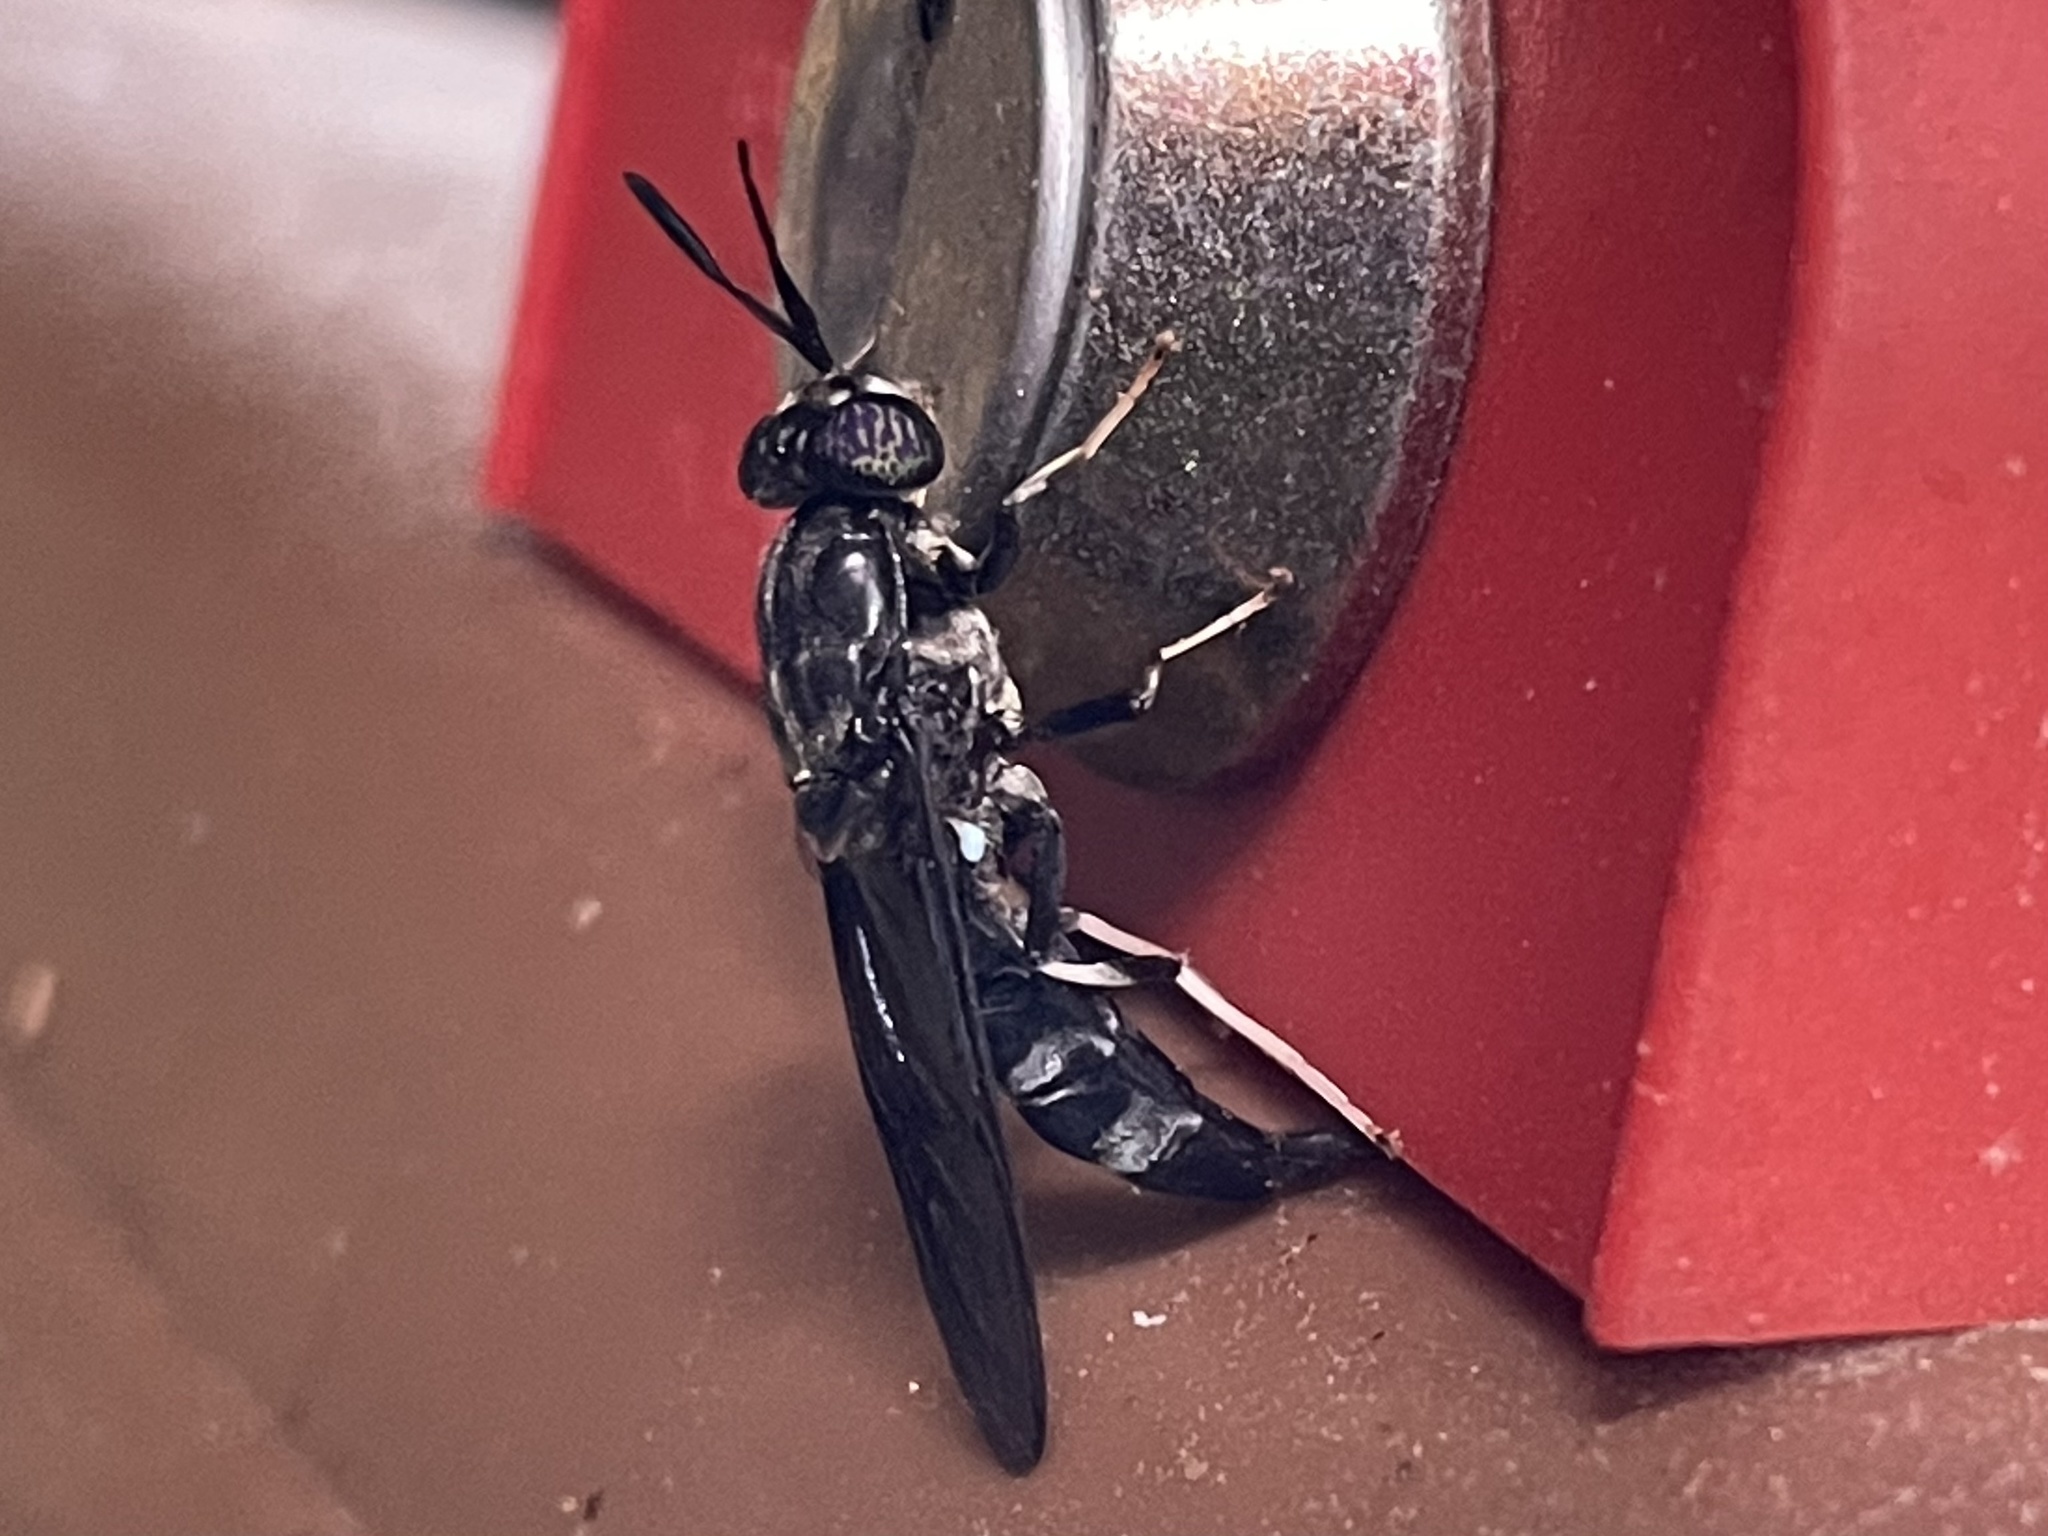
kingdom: Animalia
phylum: Arthropoda
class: Insecta
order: Diptera
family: Stratiomyidae
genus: Hermetia
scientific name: Hermetia illucens
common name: Black soldier fly
